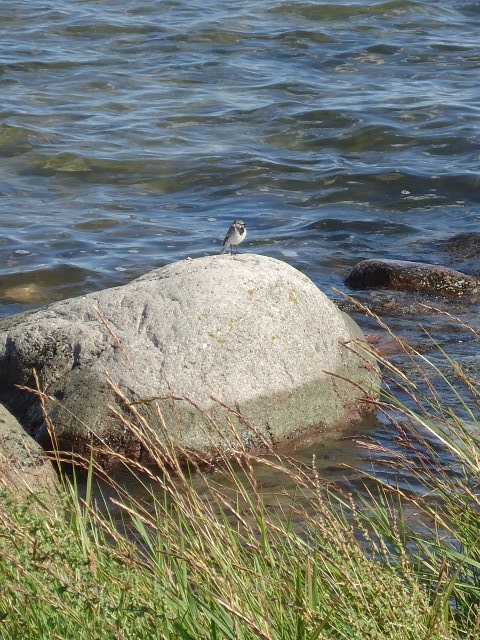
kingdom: Animalia
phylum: Chordata
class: Aves
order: Passeriformes
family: Motacillidae
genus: Motacilla
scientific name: Motacilla alba
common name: White wagtail
